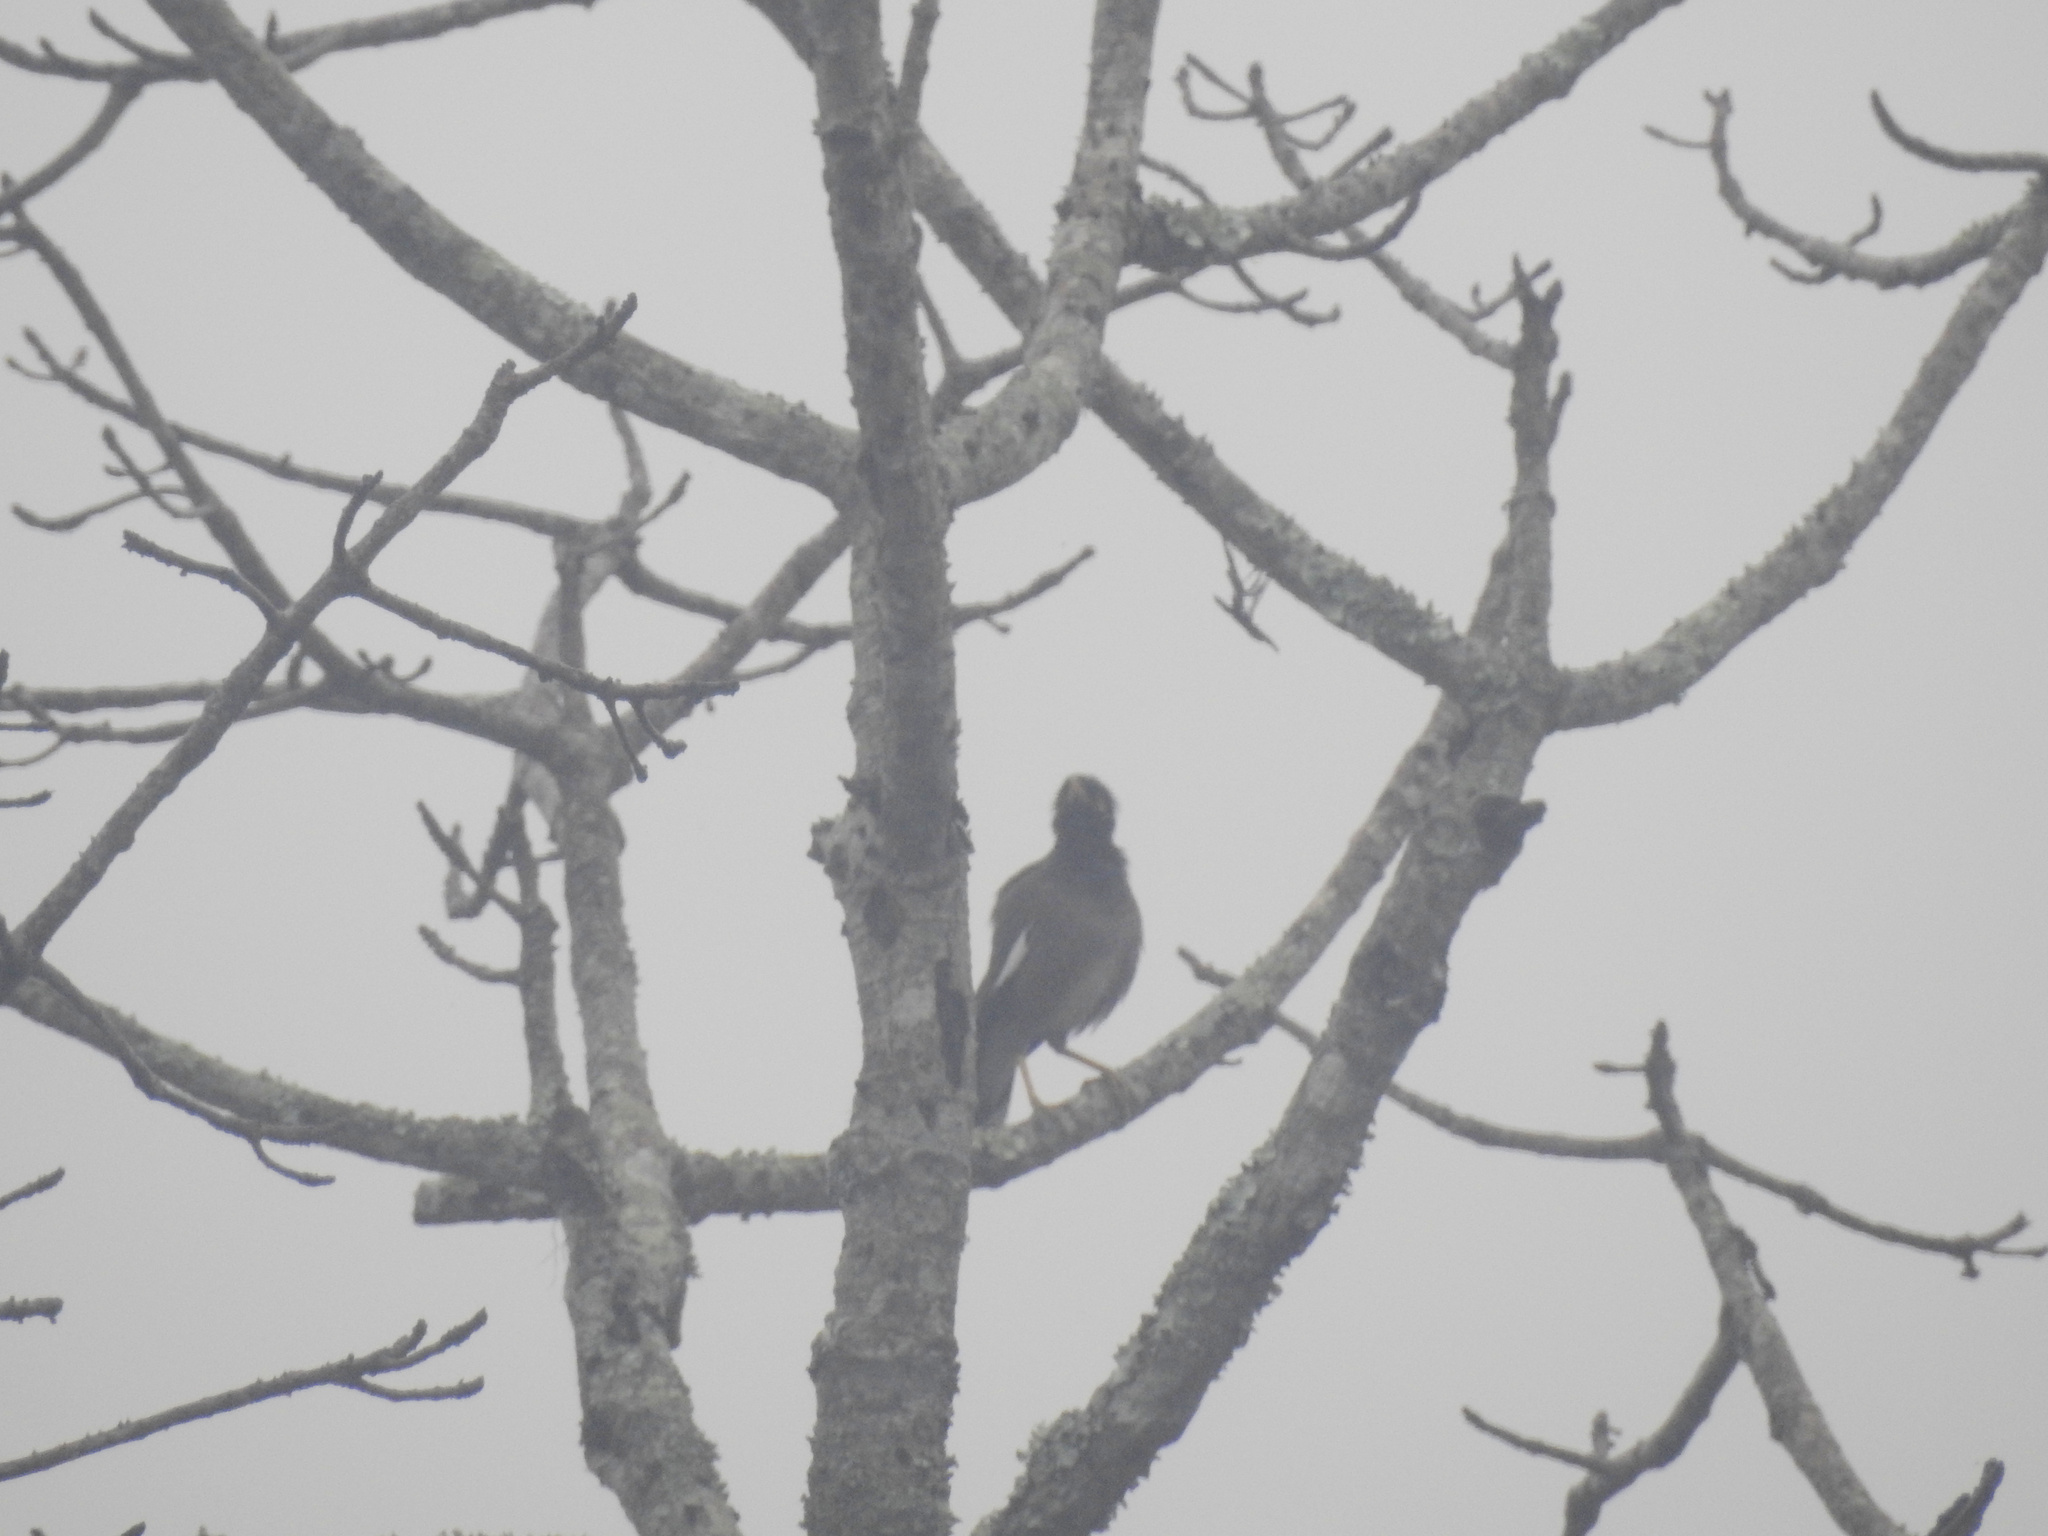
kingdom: Animalia
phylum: Chordata
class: Aves
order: Passeriformes
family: Sturnidae
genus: Acridotheres
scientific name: Acridotheres tristis
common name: Common myna
